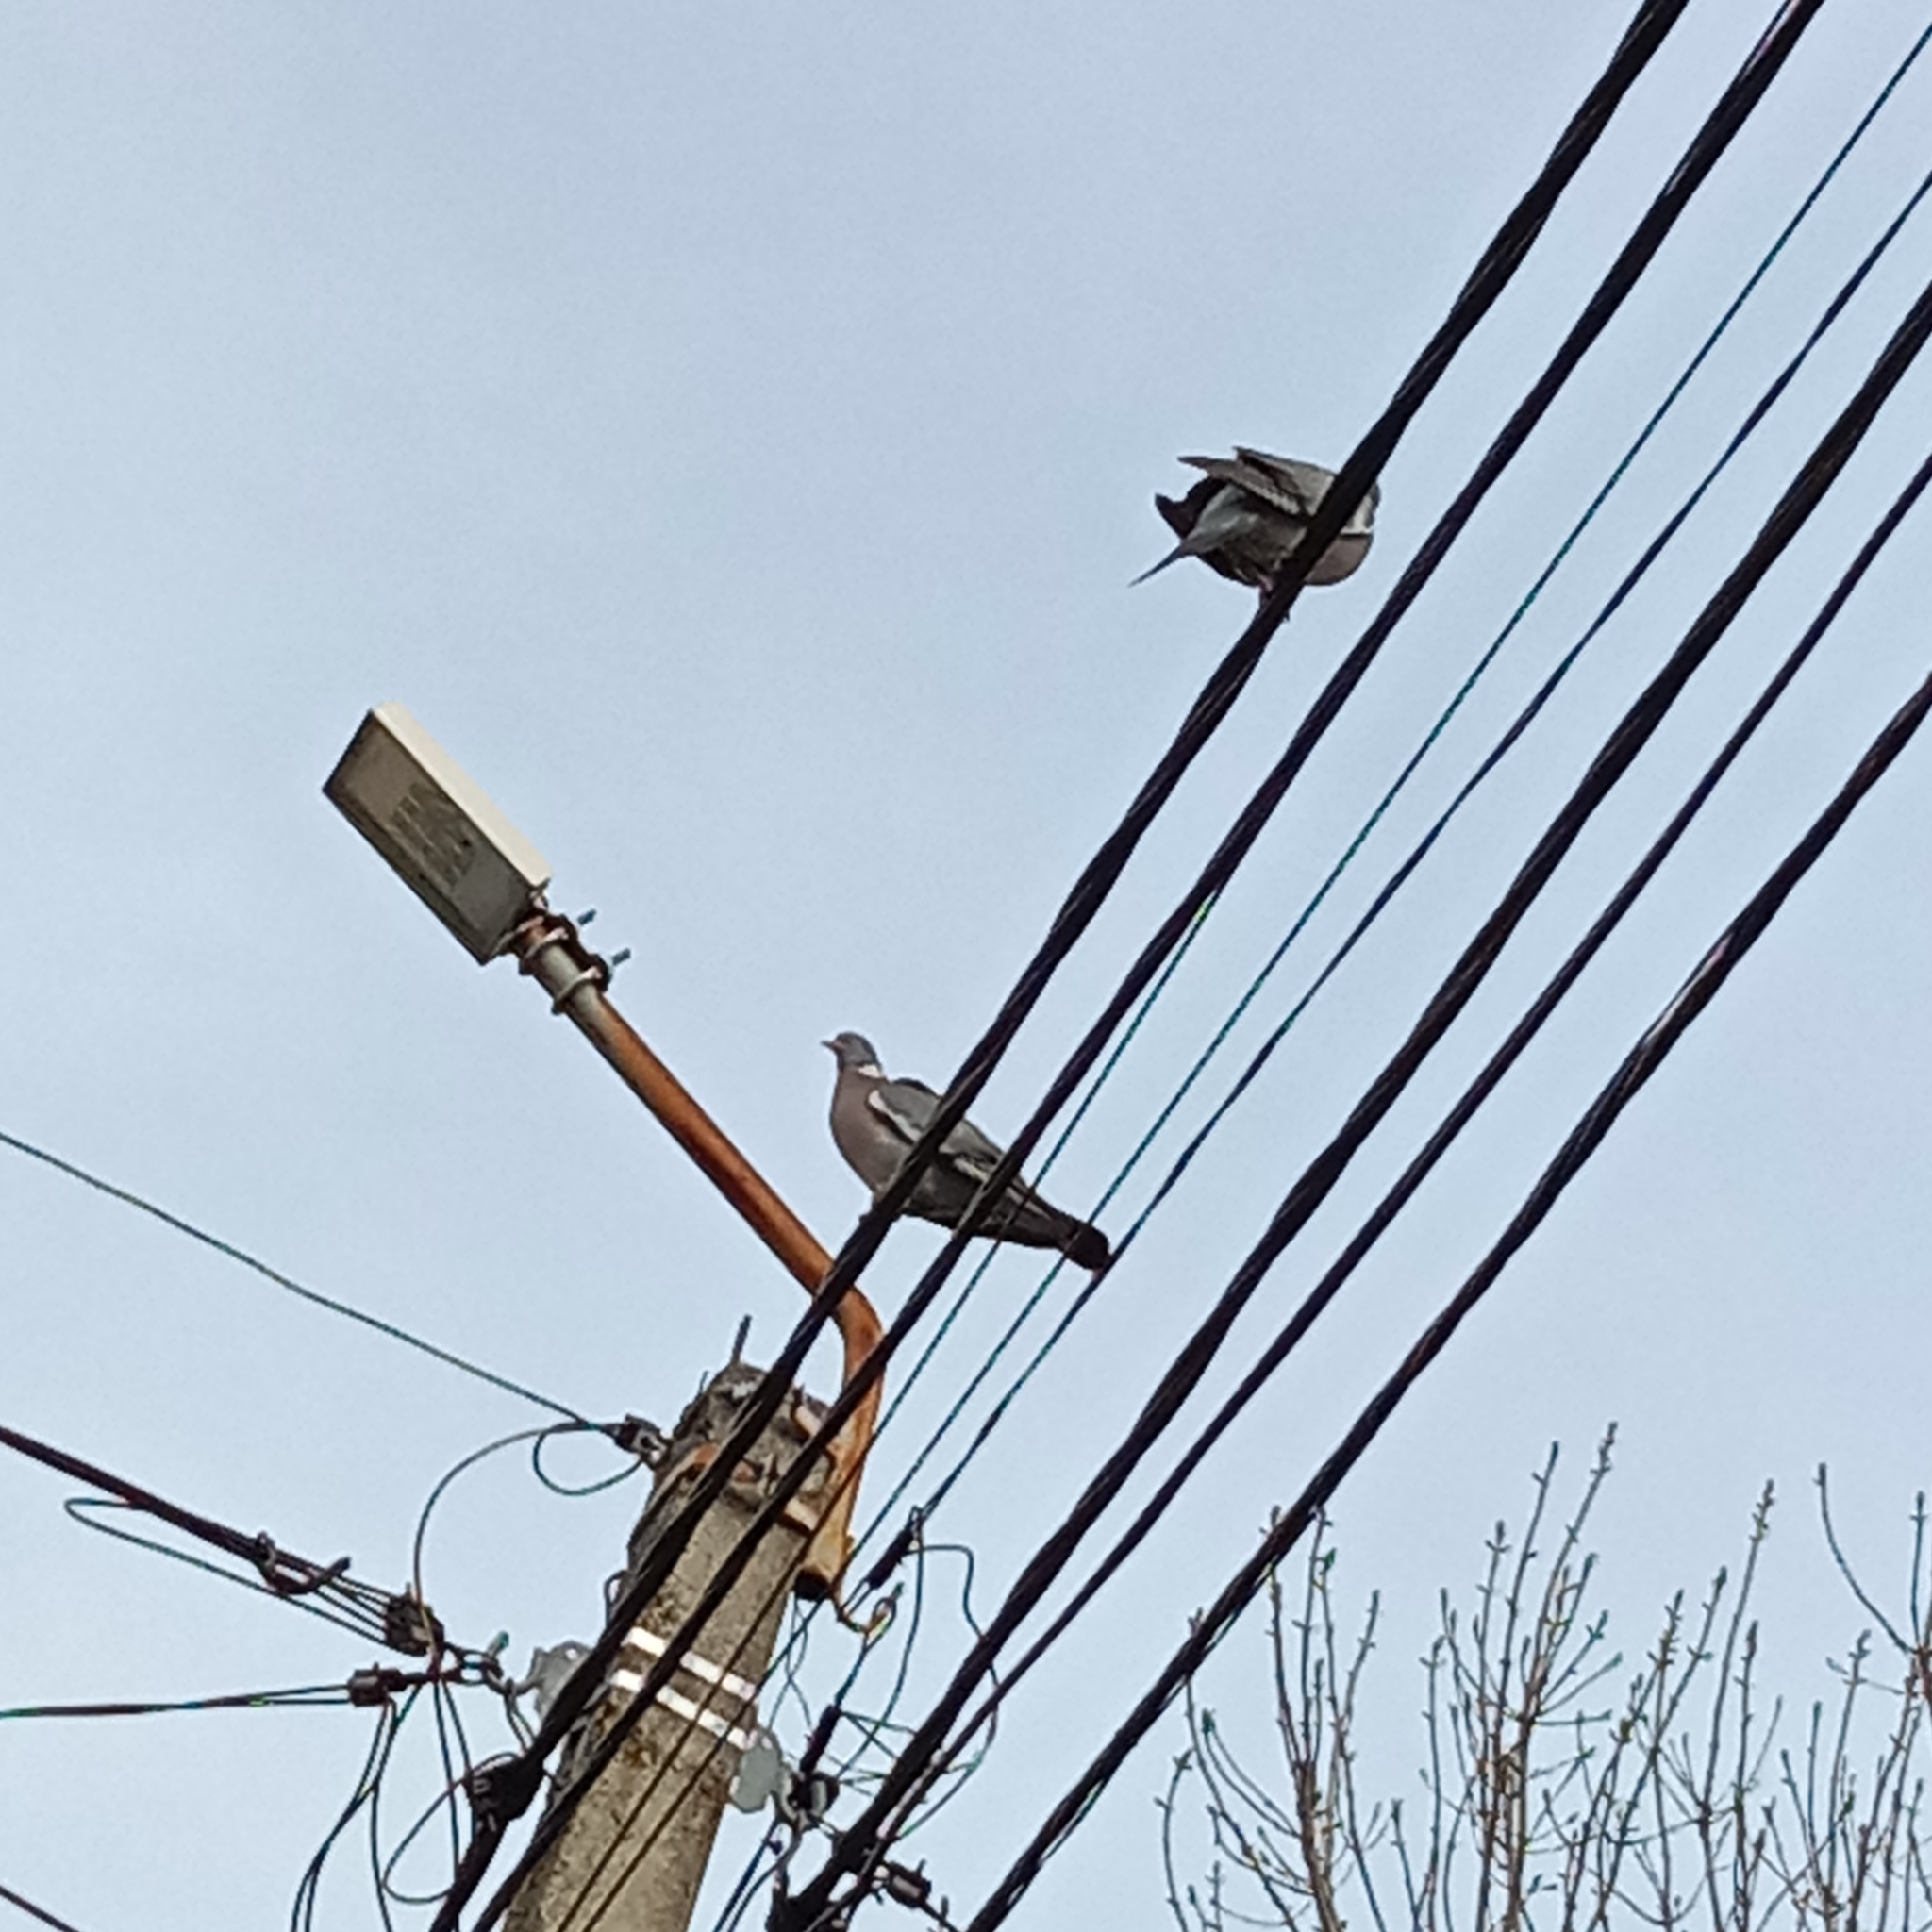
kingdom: Animalia
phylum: Chordata
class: Aves
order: Columbiformes
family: Columbidae
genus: Columba
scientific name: Columba palumbus
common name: Common wood pigeon
